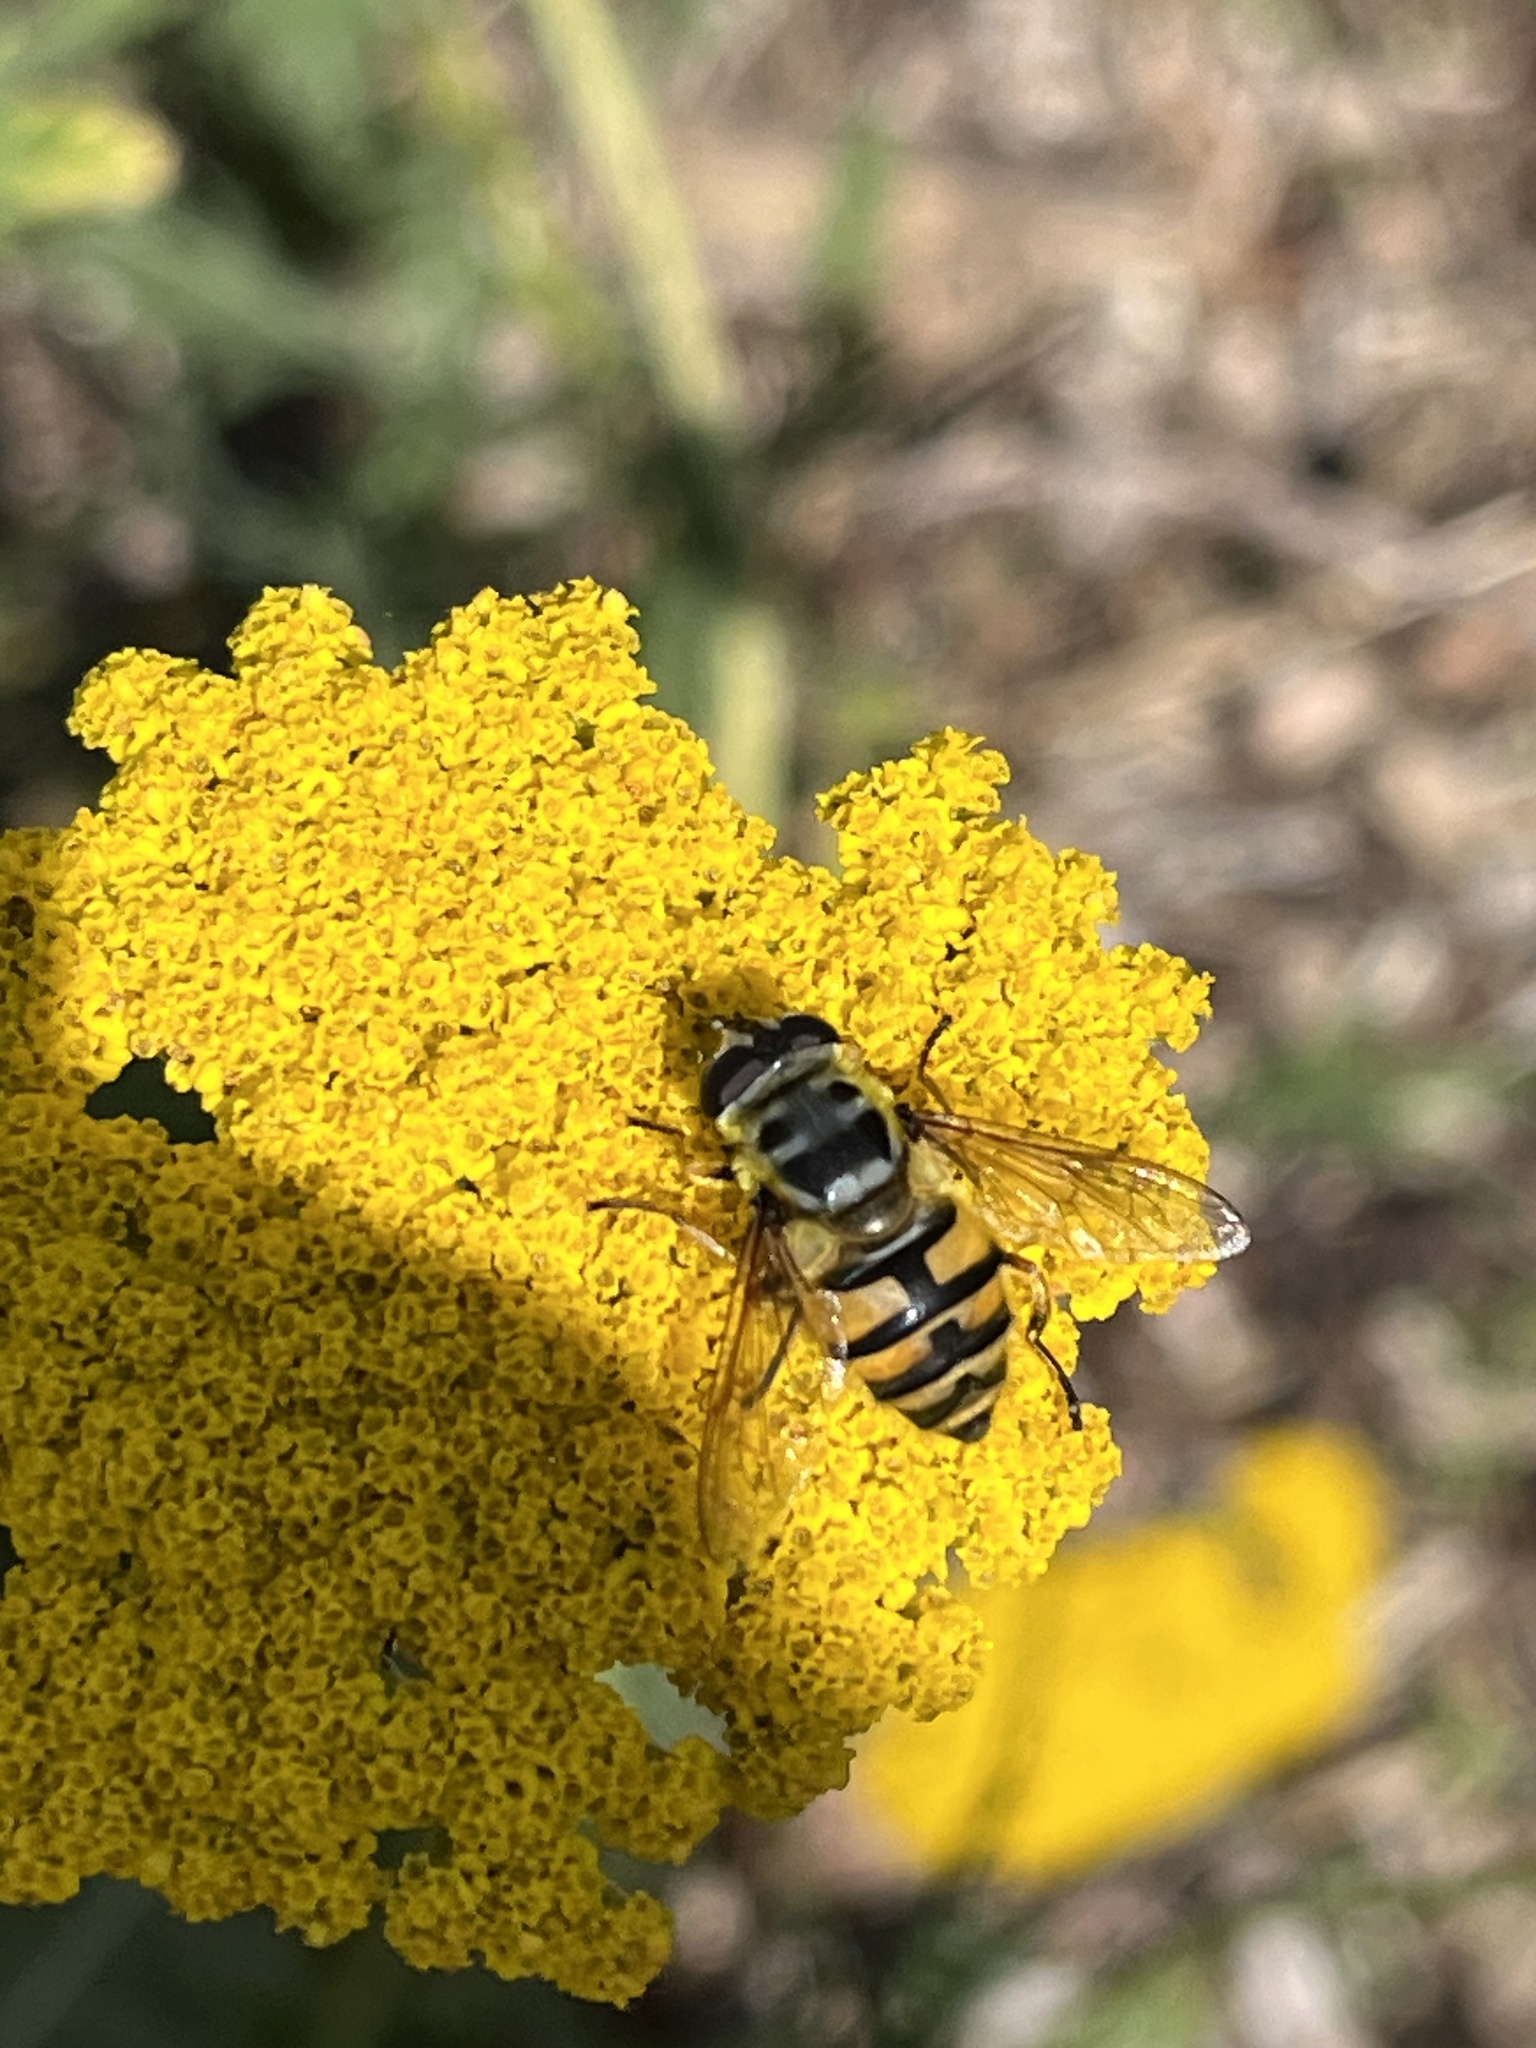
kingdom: Animalia
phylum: Arthropoda
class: Insecta
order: Diptera
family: Syrphidae
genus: Myathropa
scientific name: Myathropa florea
